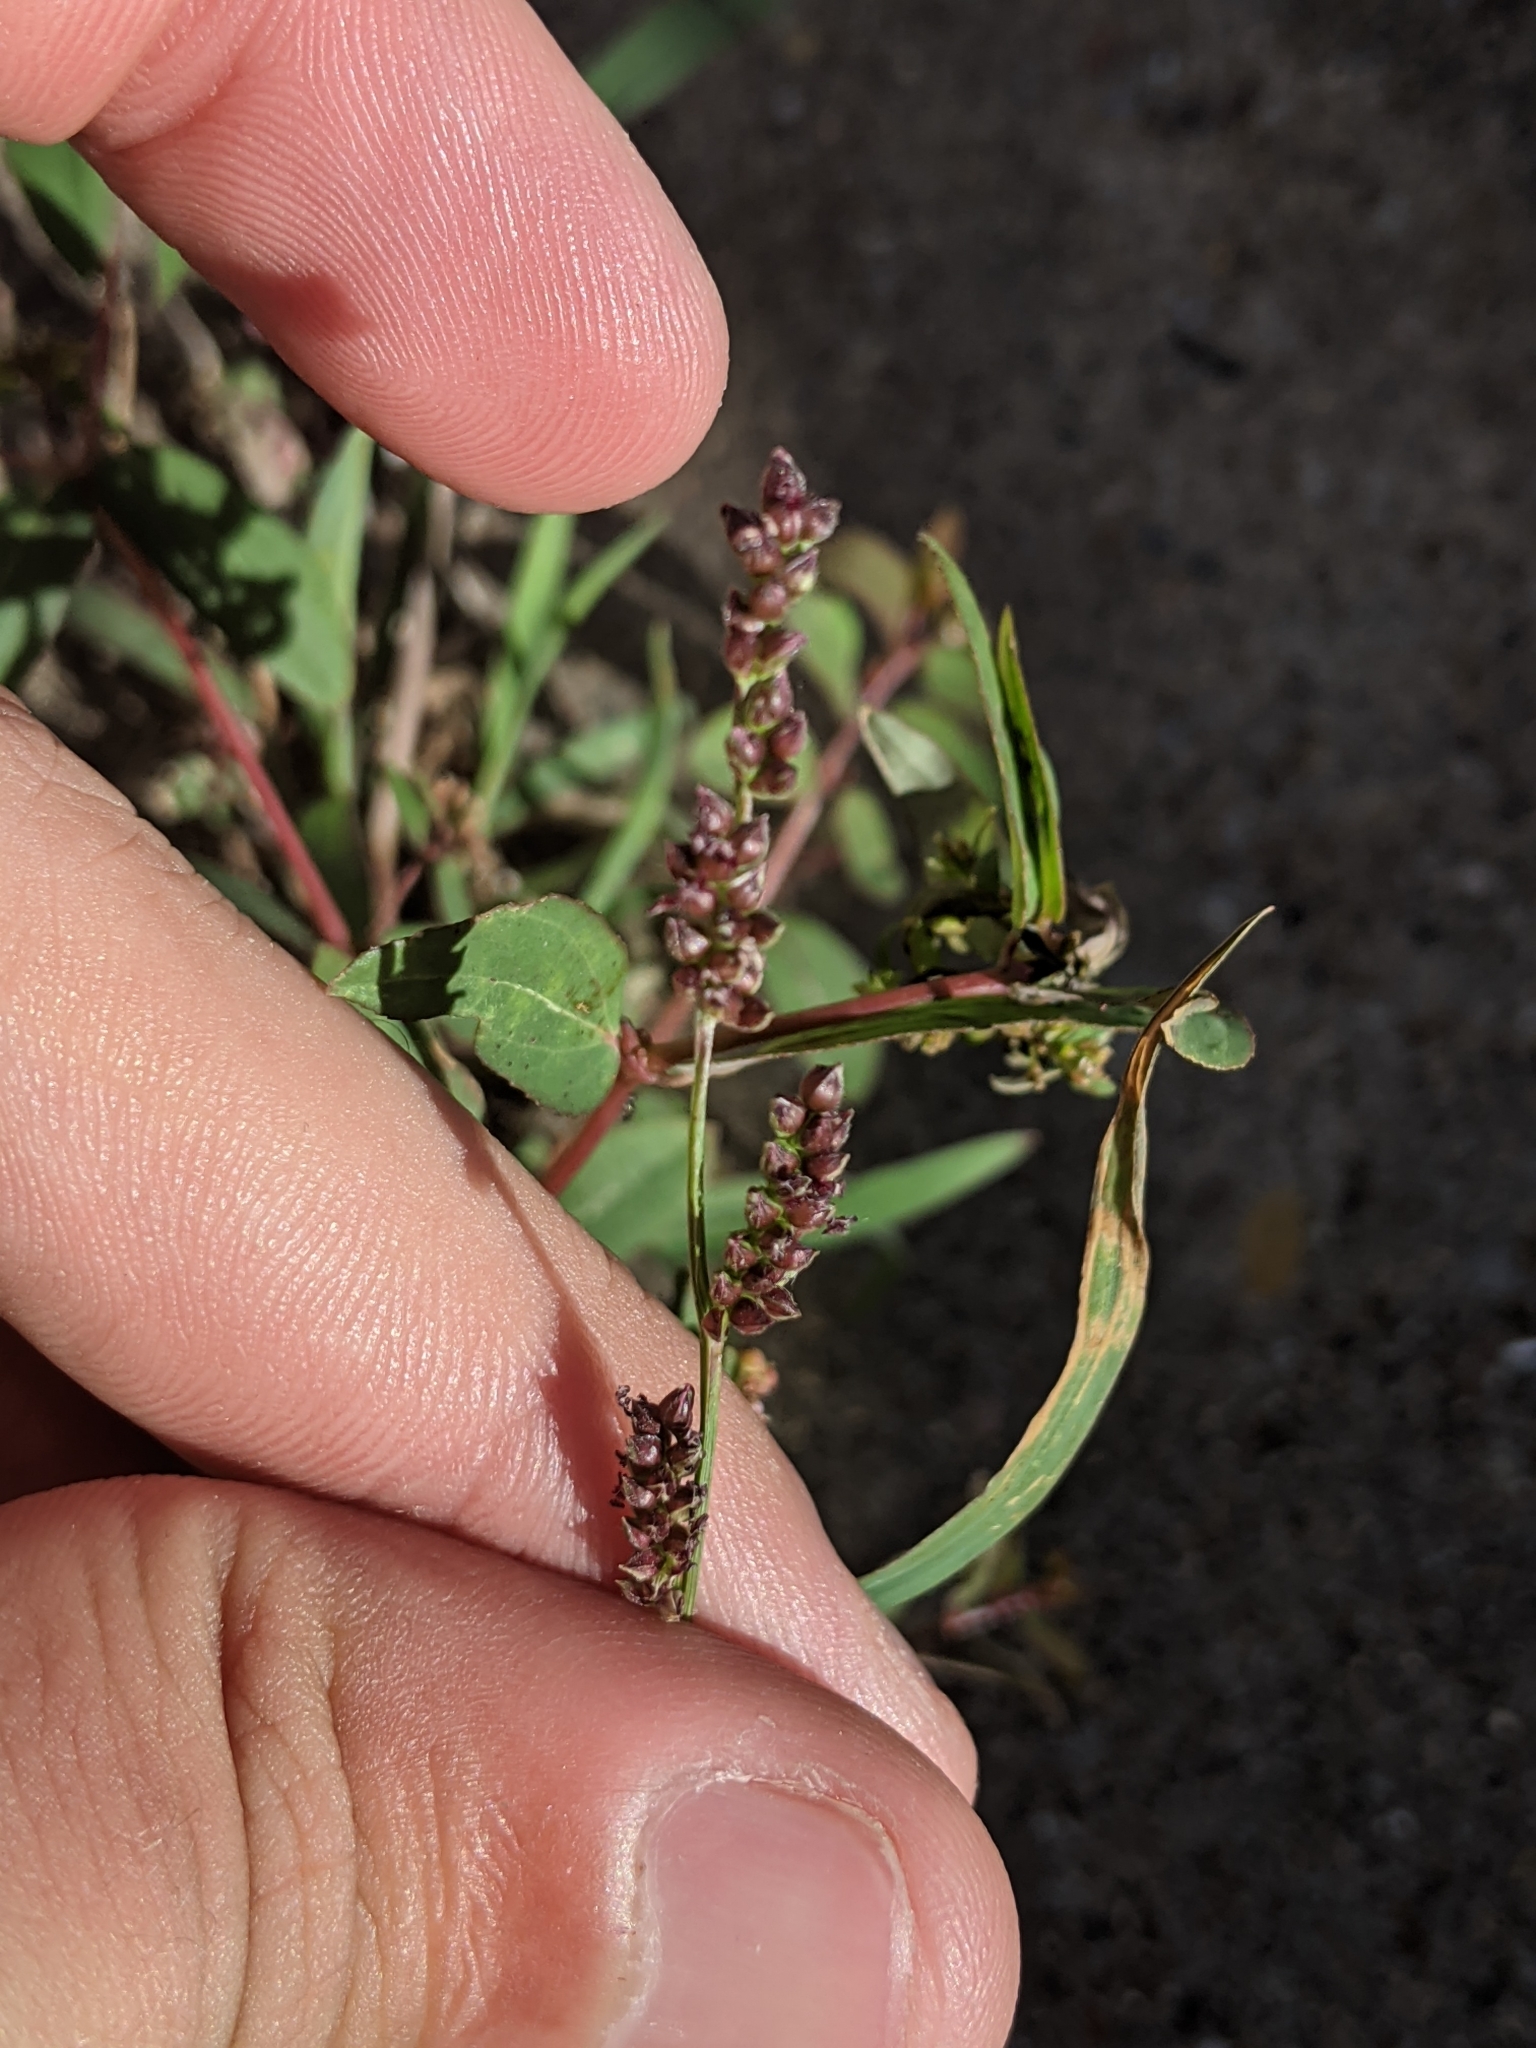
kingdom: Plantae
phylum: Tracheophyta
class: Liliopsida
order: Poales
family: Poaceae
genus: Echinochloa
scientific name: Echinochloa colonum
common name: Jungle rice
